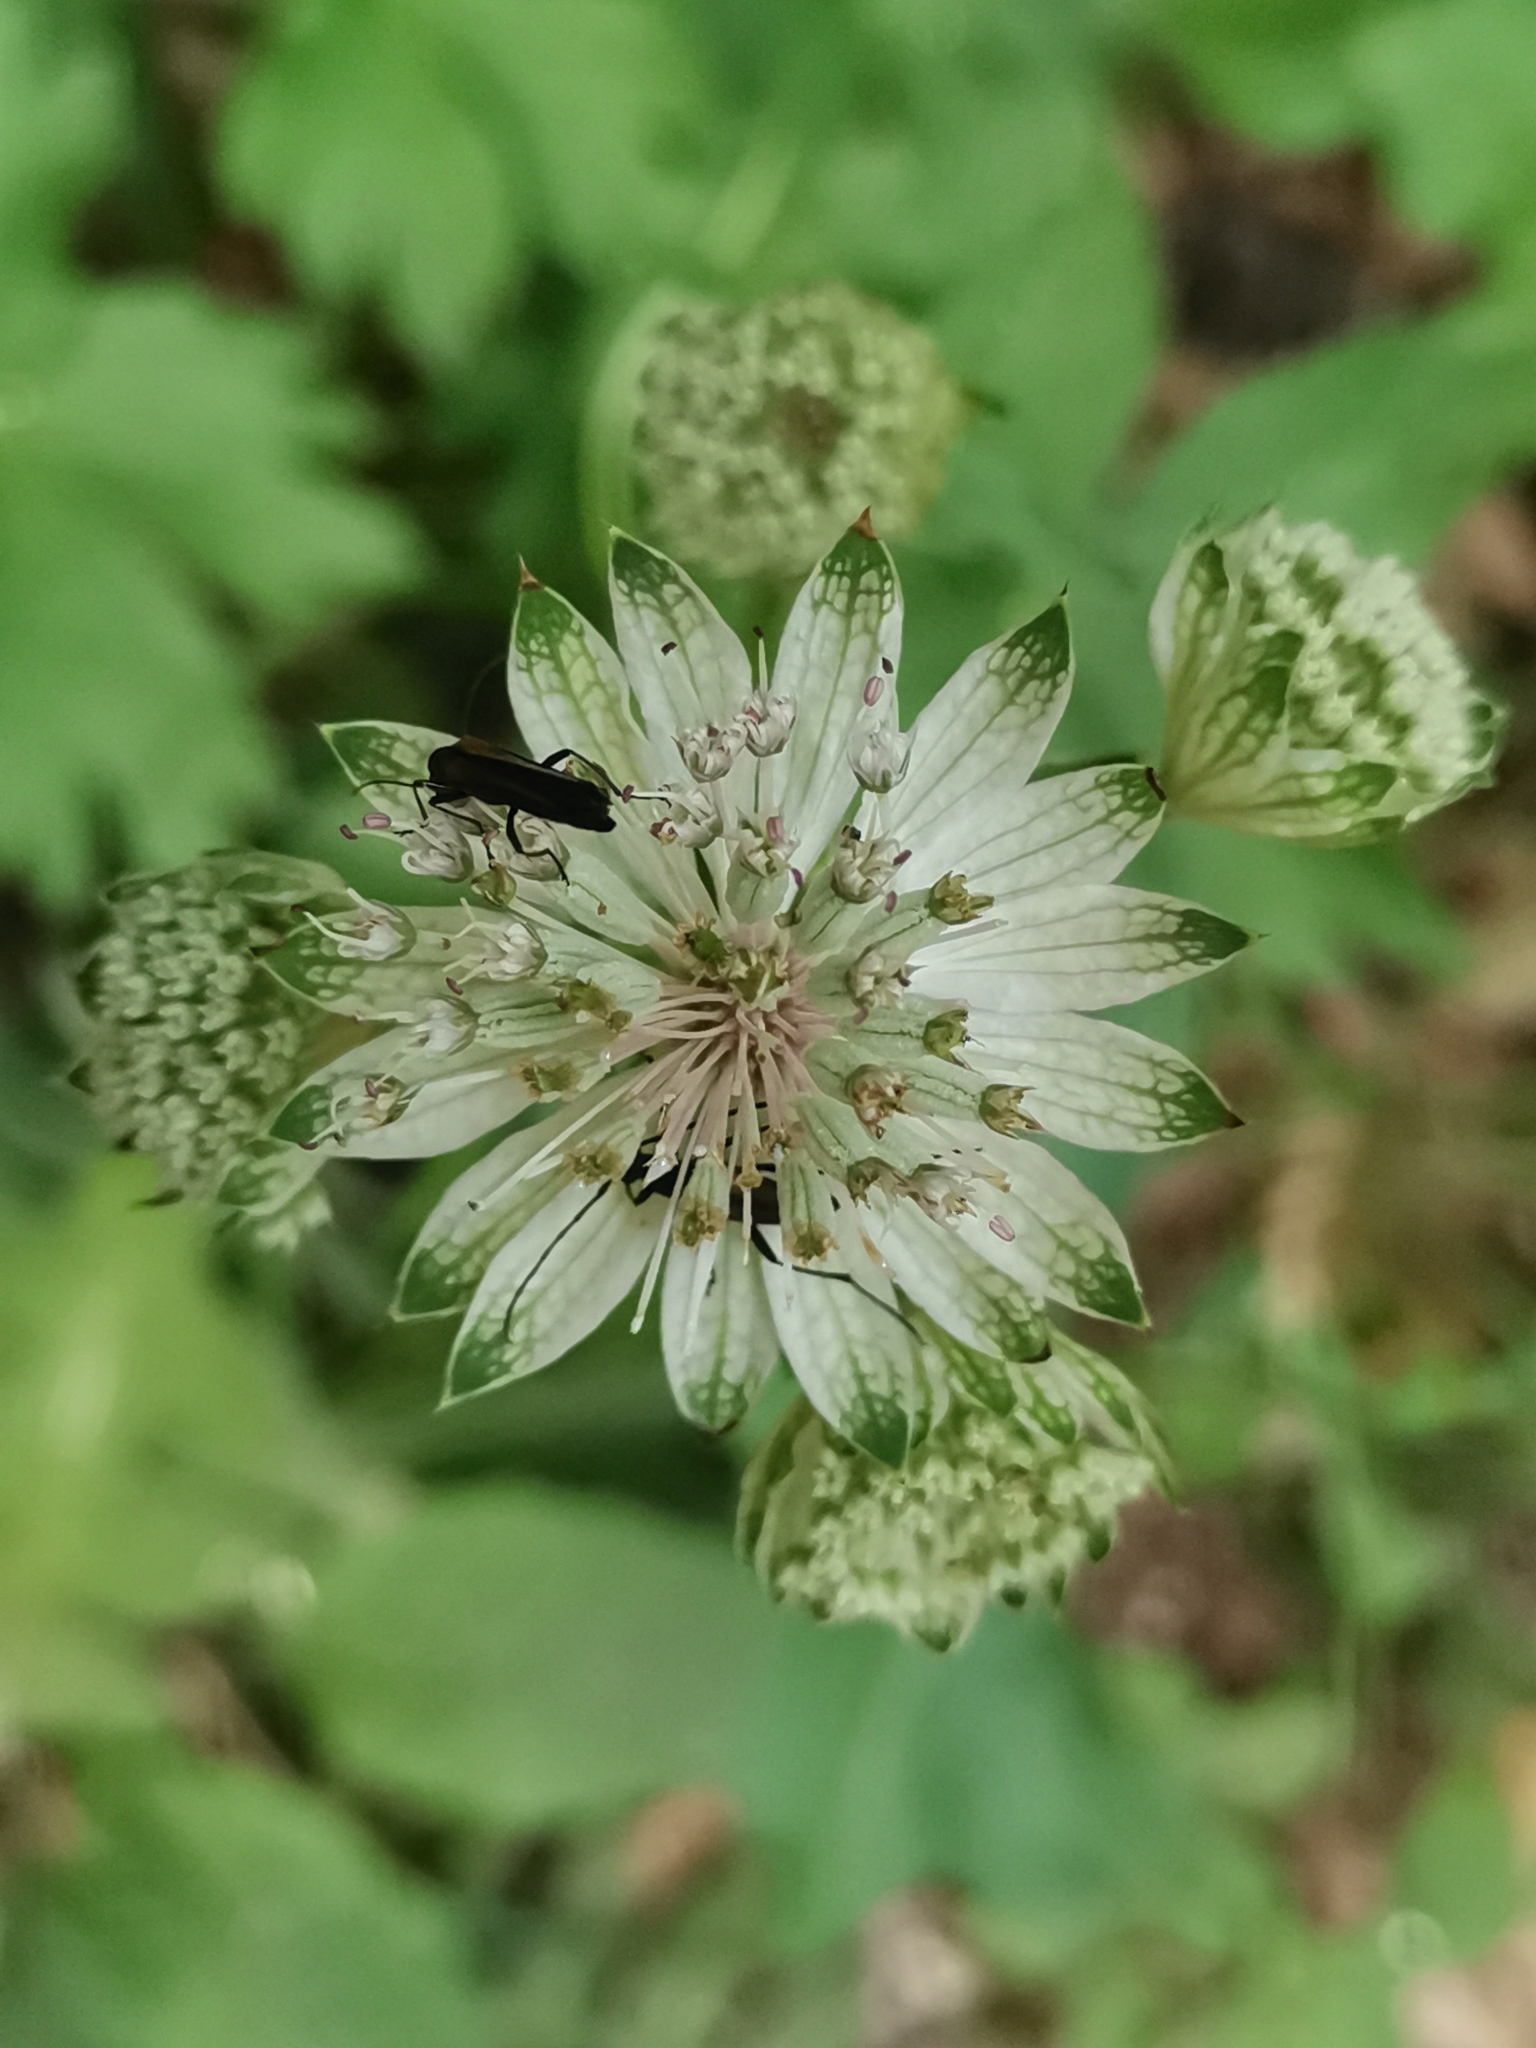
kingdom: Plantae
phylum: Tracheophyta
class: Magnoliopsida
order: Apiales
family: Apiaceae
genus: Astrantia
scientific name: Astrantia major
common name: Greater masterwort
